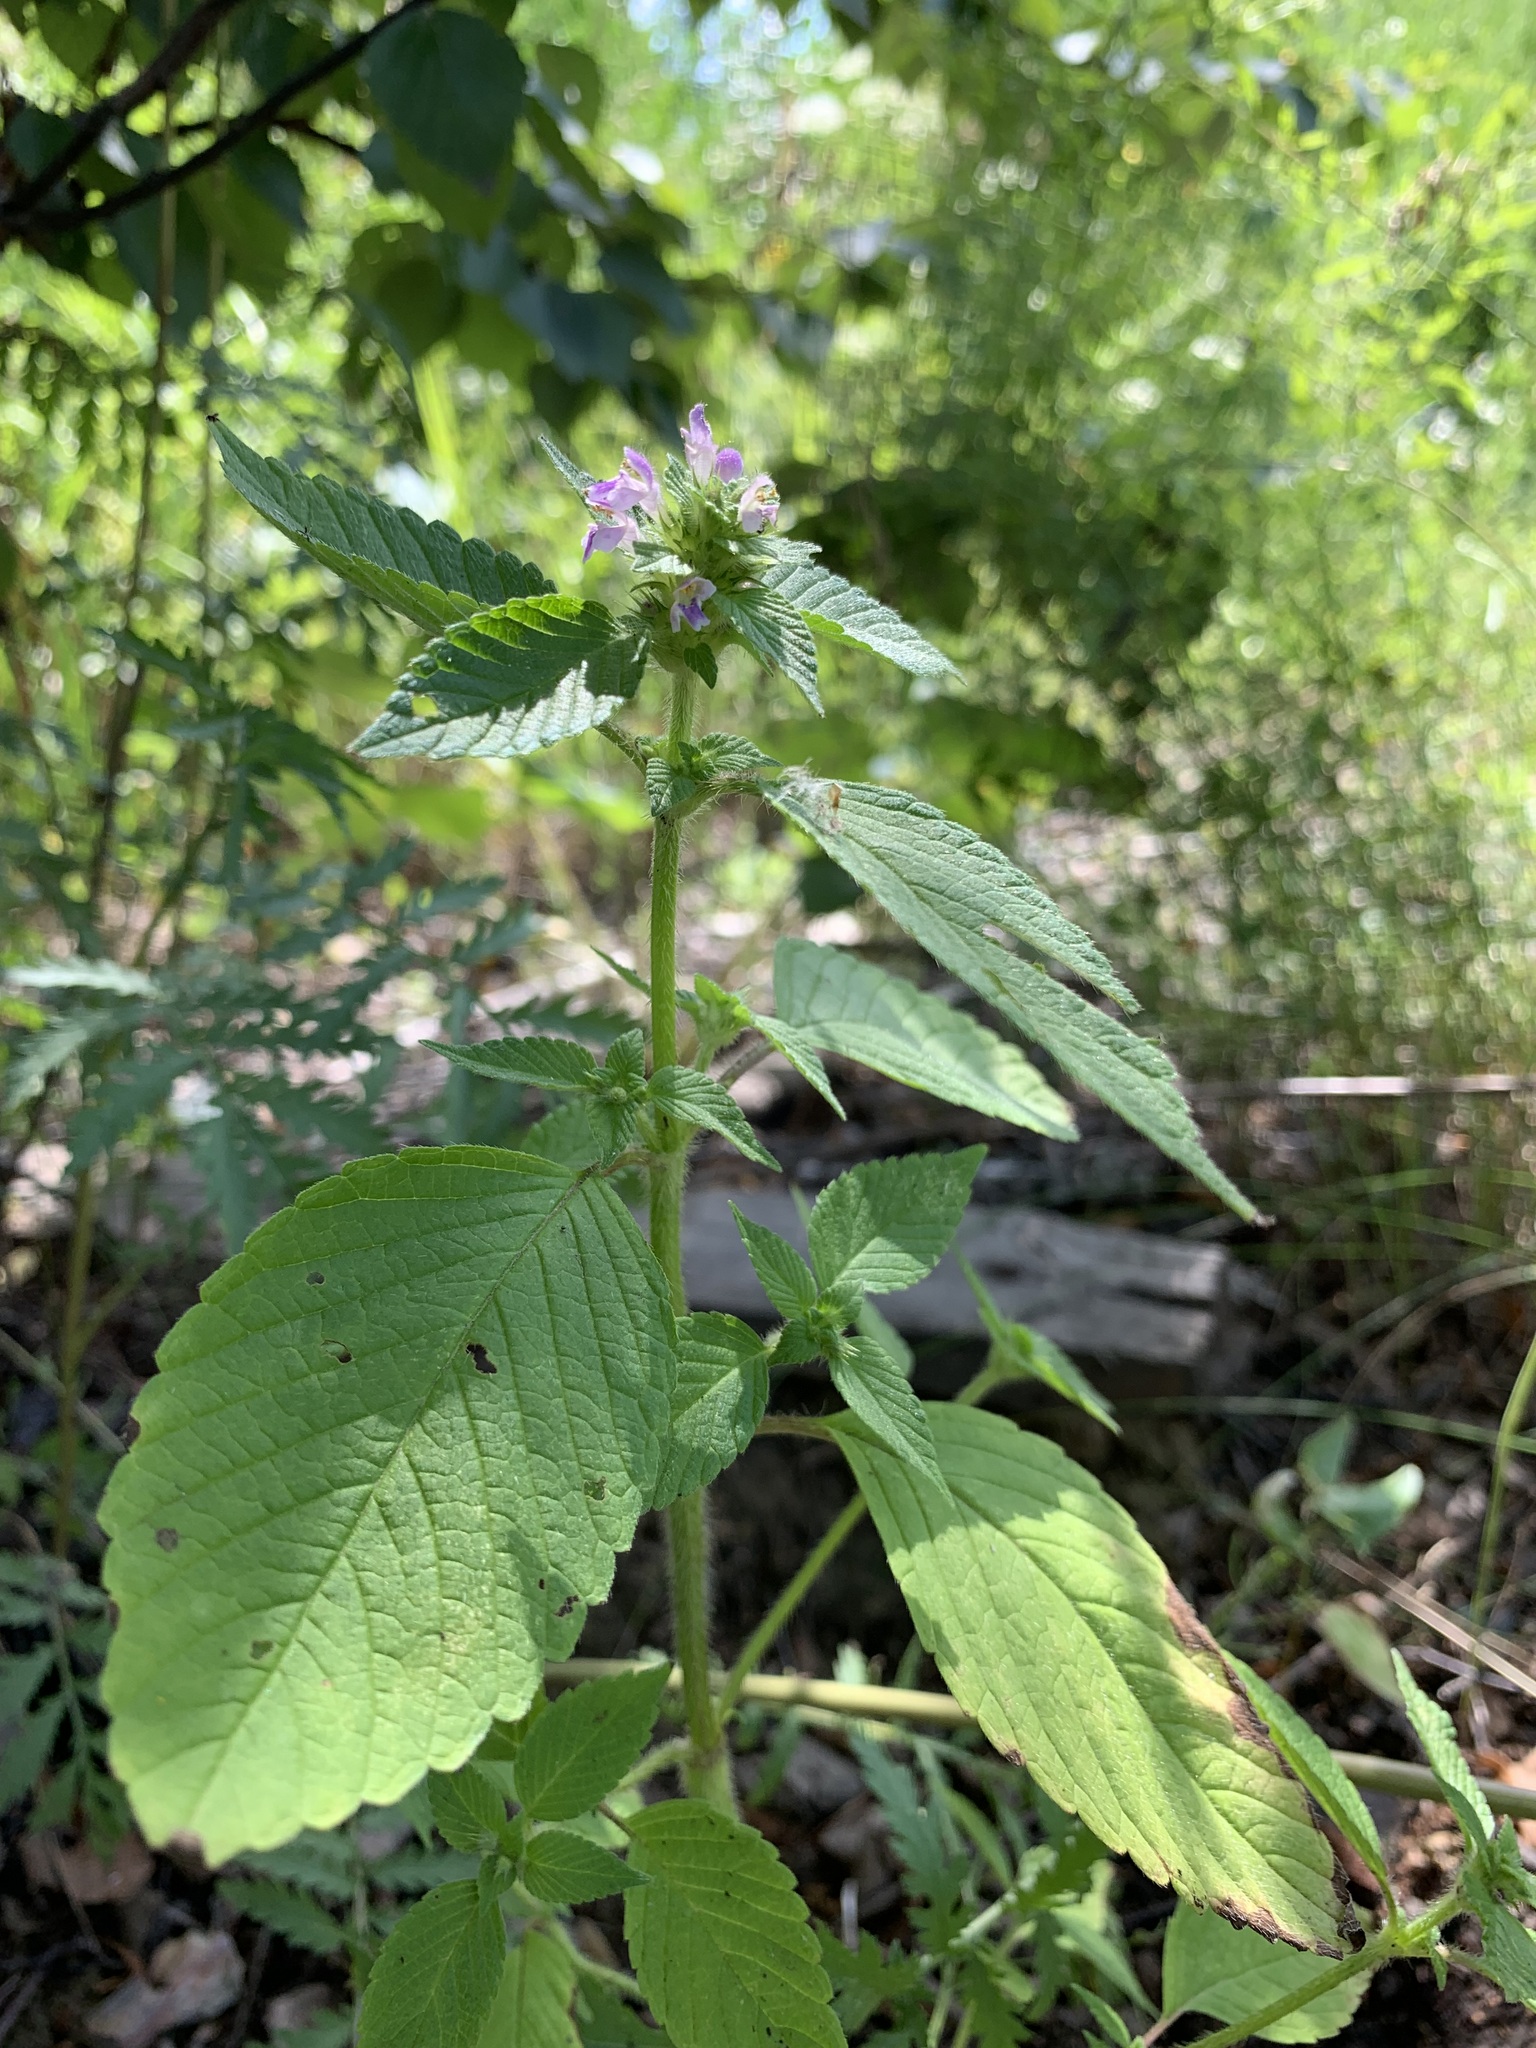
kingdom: Plantae
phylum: Tracheophyta
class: Magnoliopsida
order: Lamiales
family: Lamiaceae
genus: Galeopsis
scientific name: Galeopsis bifida
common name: Bifid hemp-nettle
